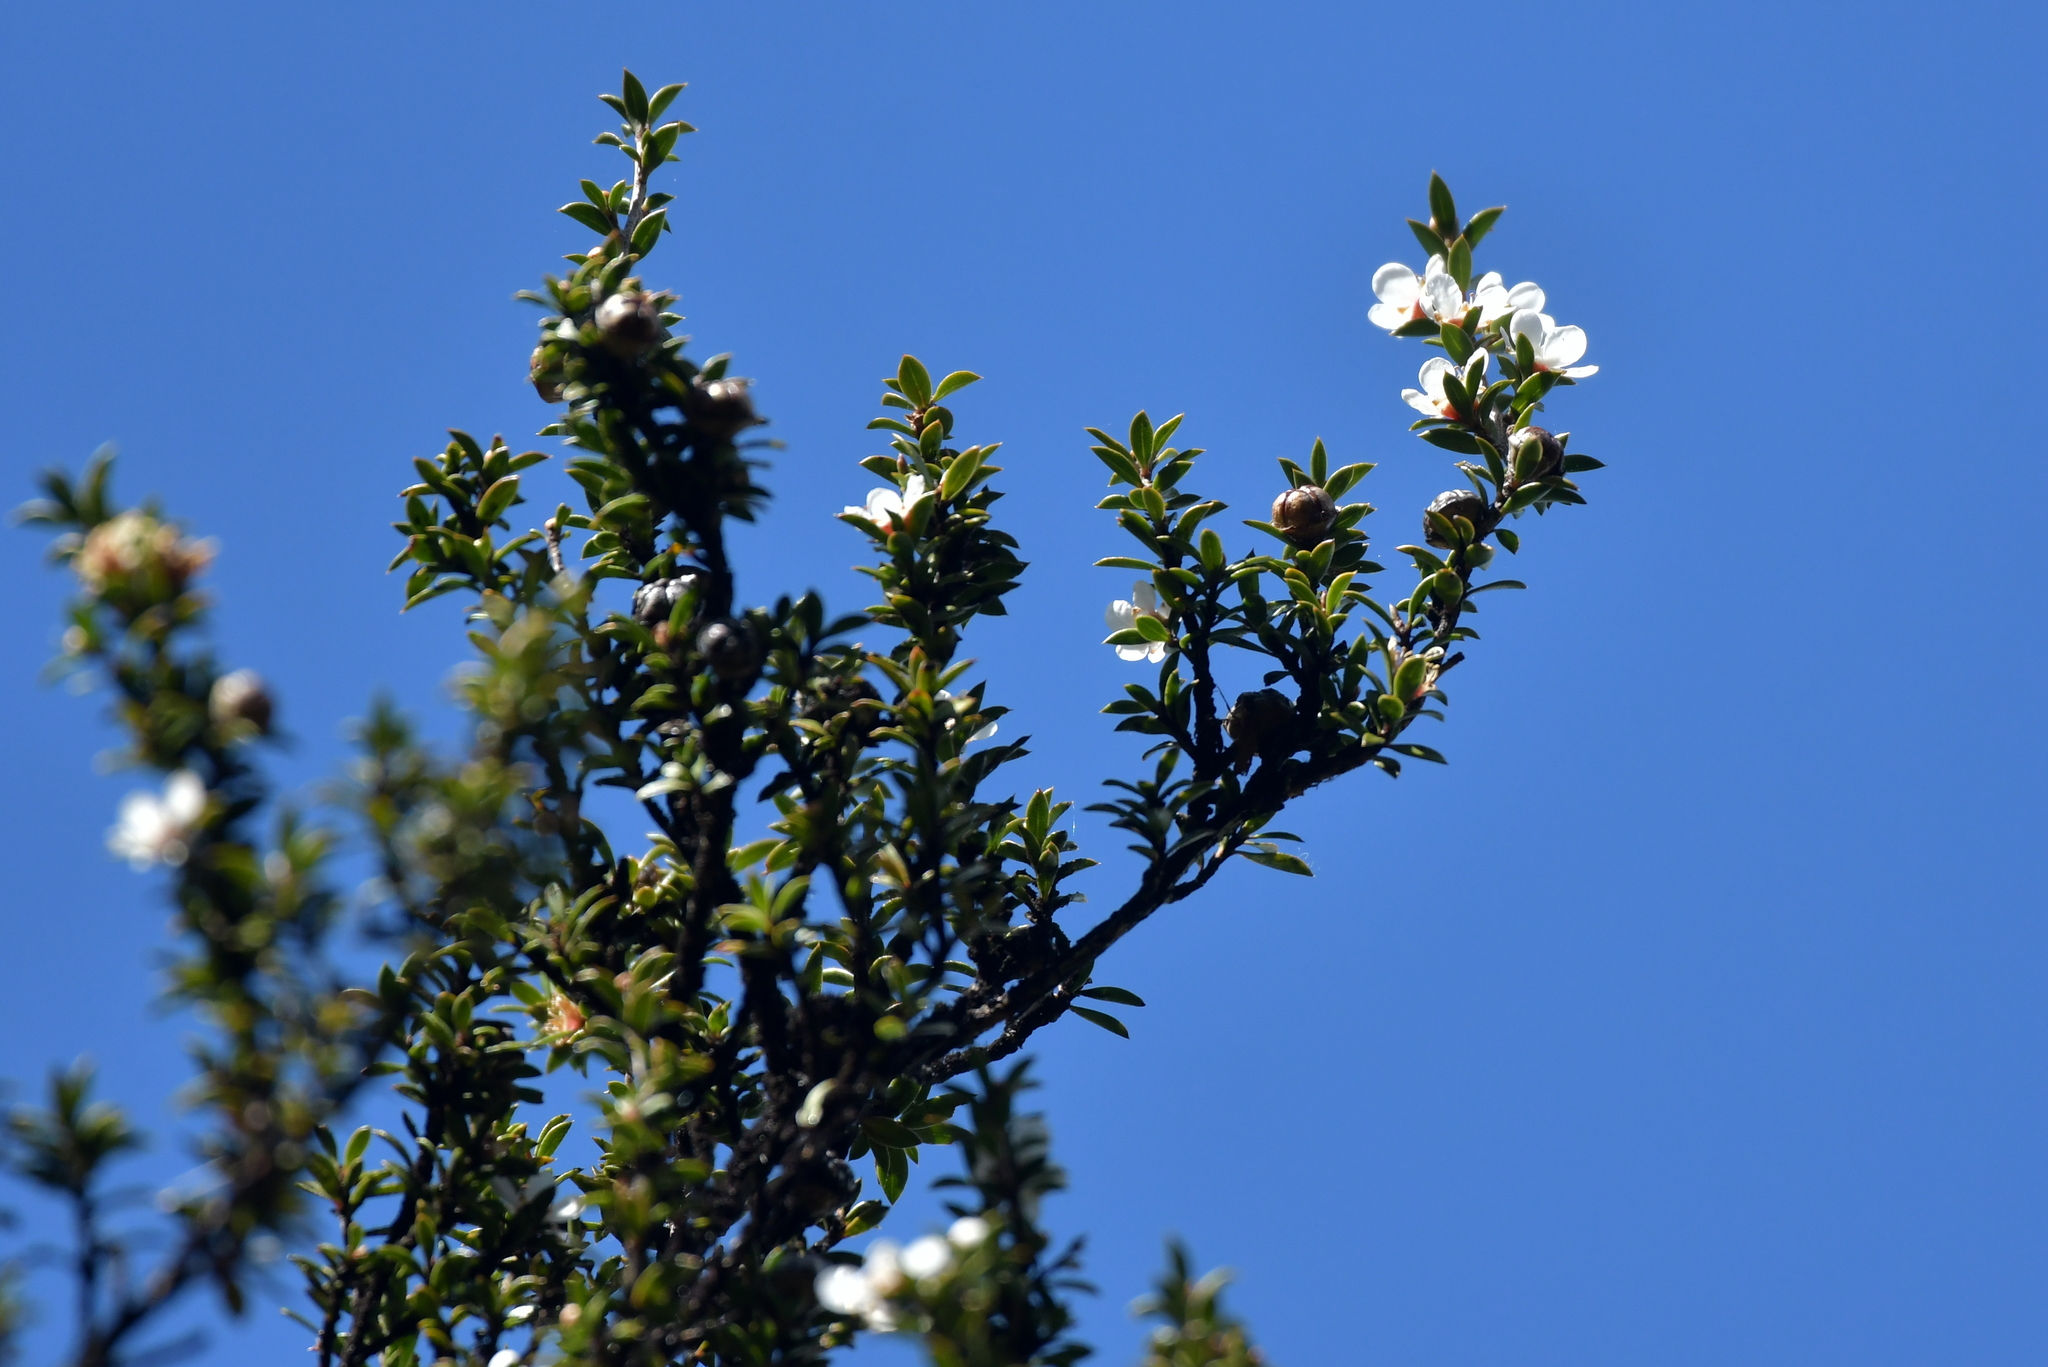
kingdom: Plantae
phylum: Tracheophyta
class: Magnoliopsida
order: Myrtales
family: Myrtaceae
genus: Leptospermum
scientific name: Leptospermum scoparium
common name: Broom tea-tree
